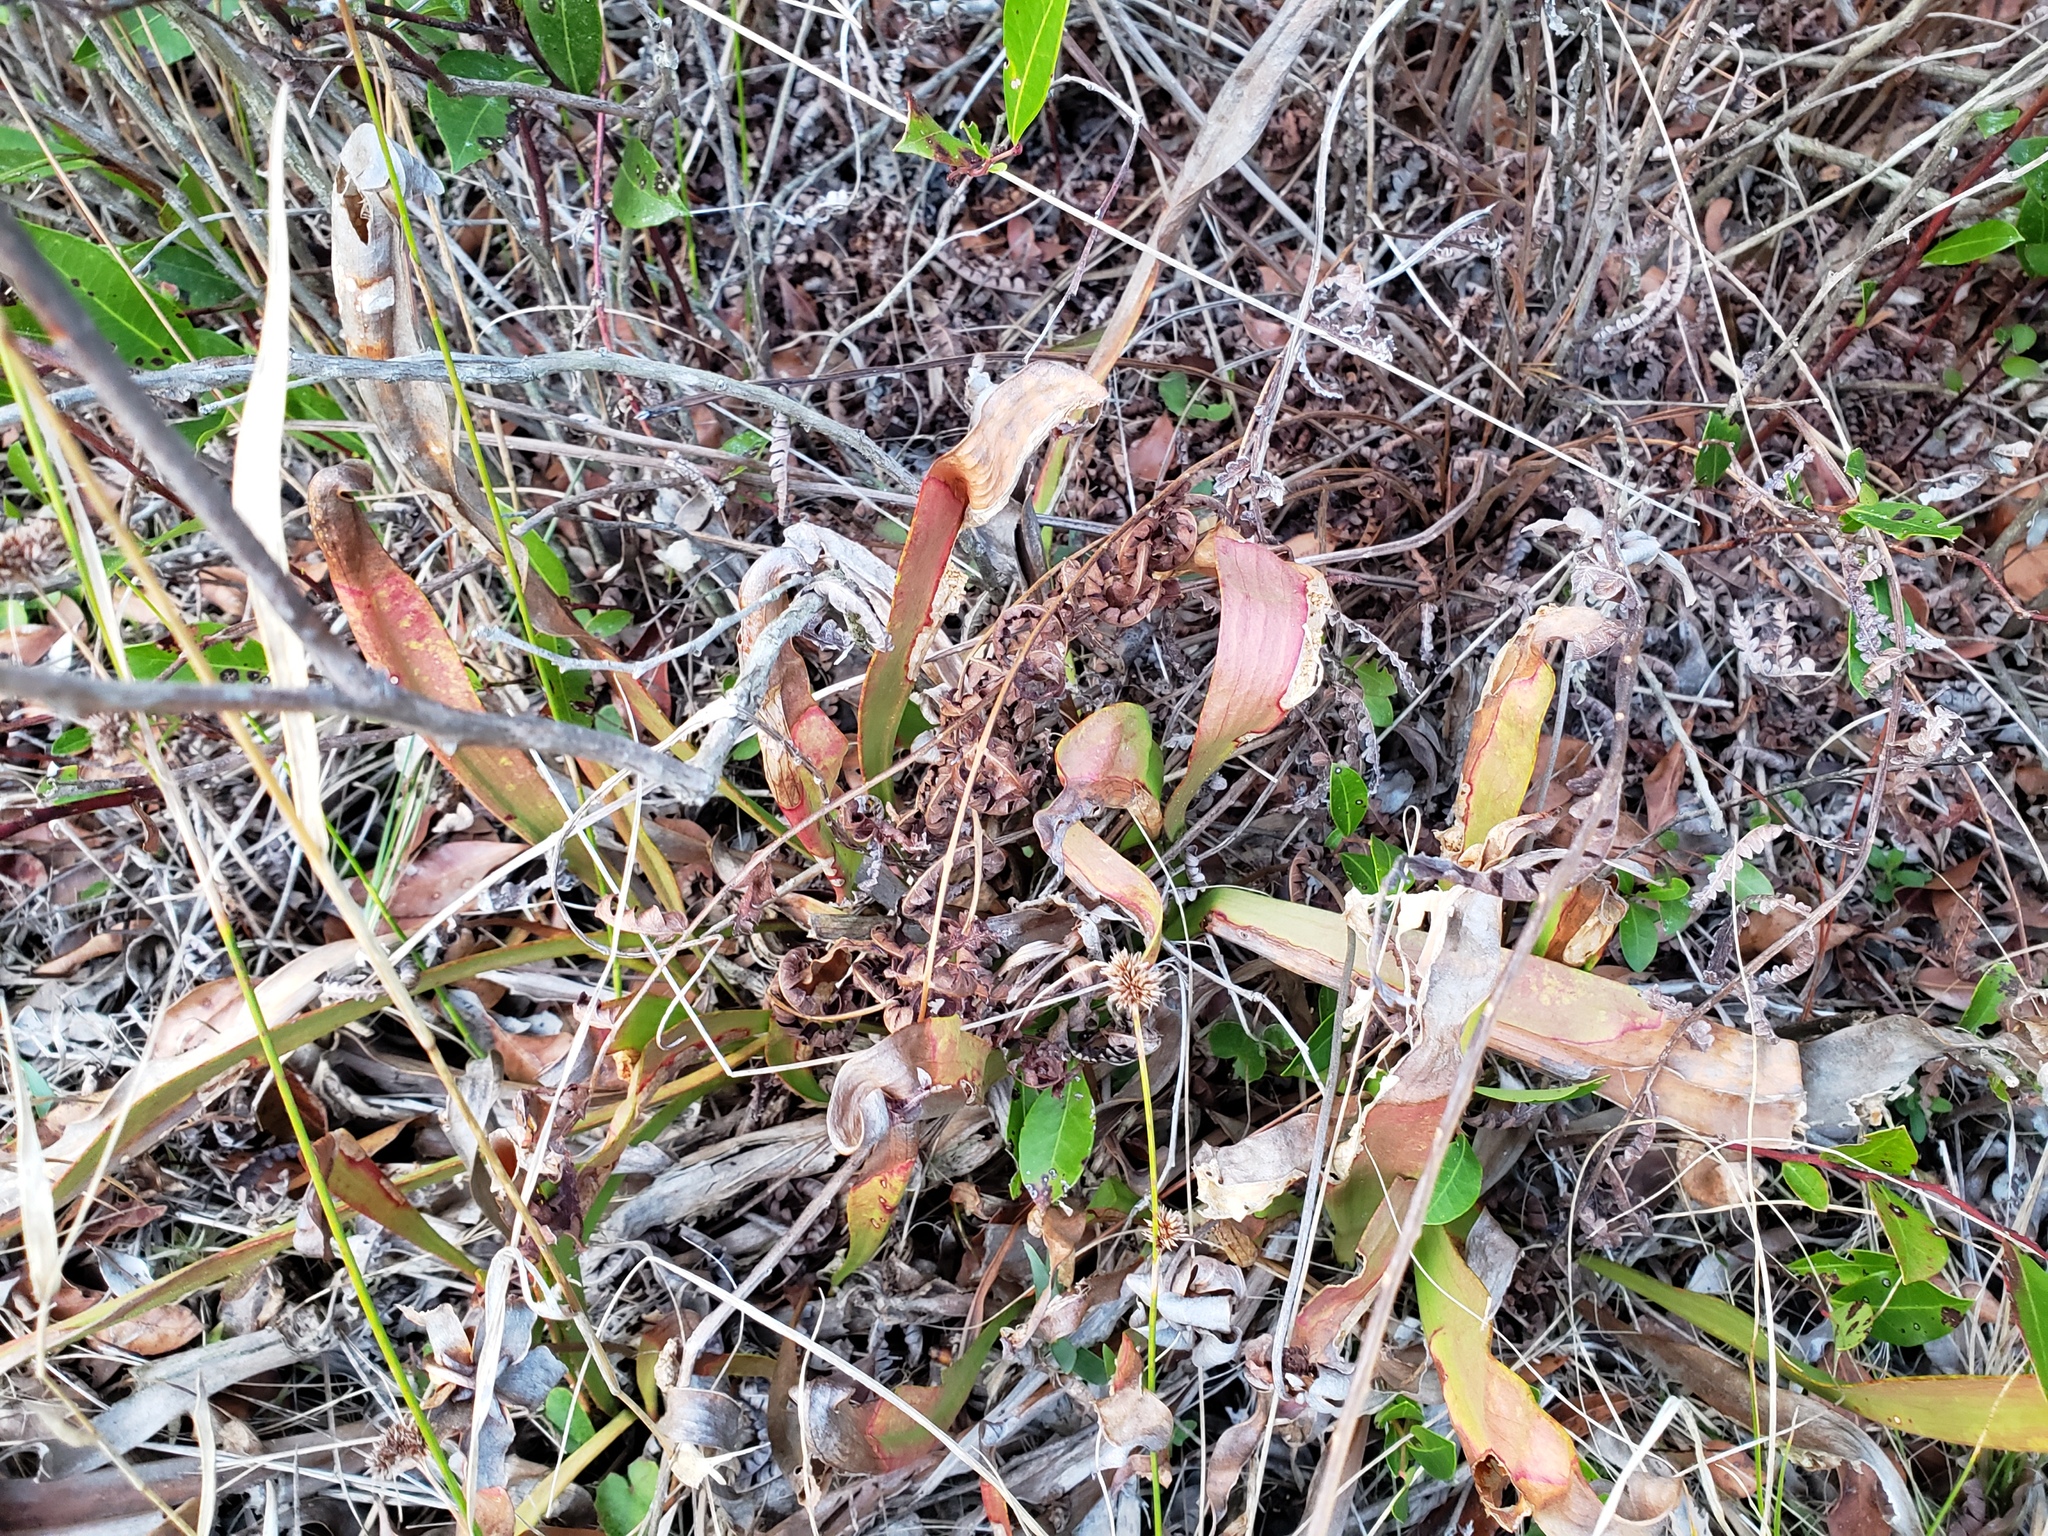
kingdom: Plantae
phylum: Tracheophyta
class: Magnoliopsida
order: Ericales
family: Sarraceniaceae
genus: Sarracenia
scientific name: Sarracenia minor
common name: Rainhat-trumpet
